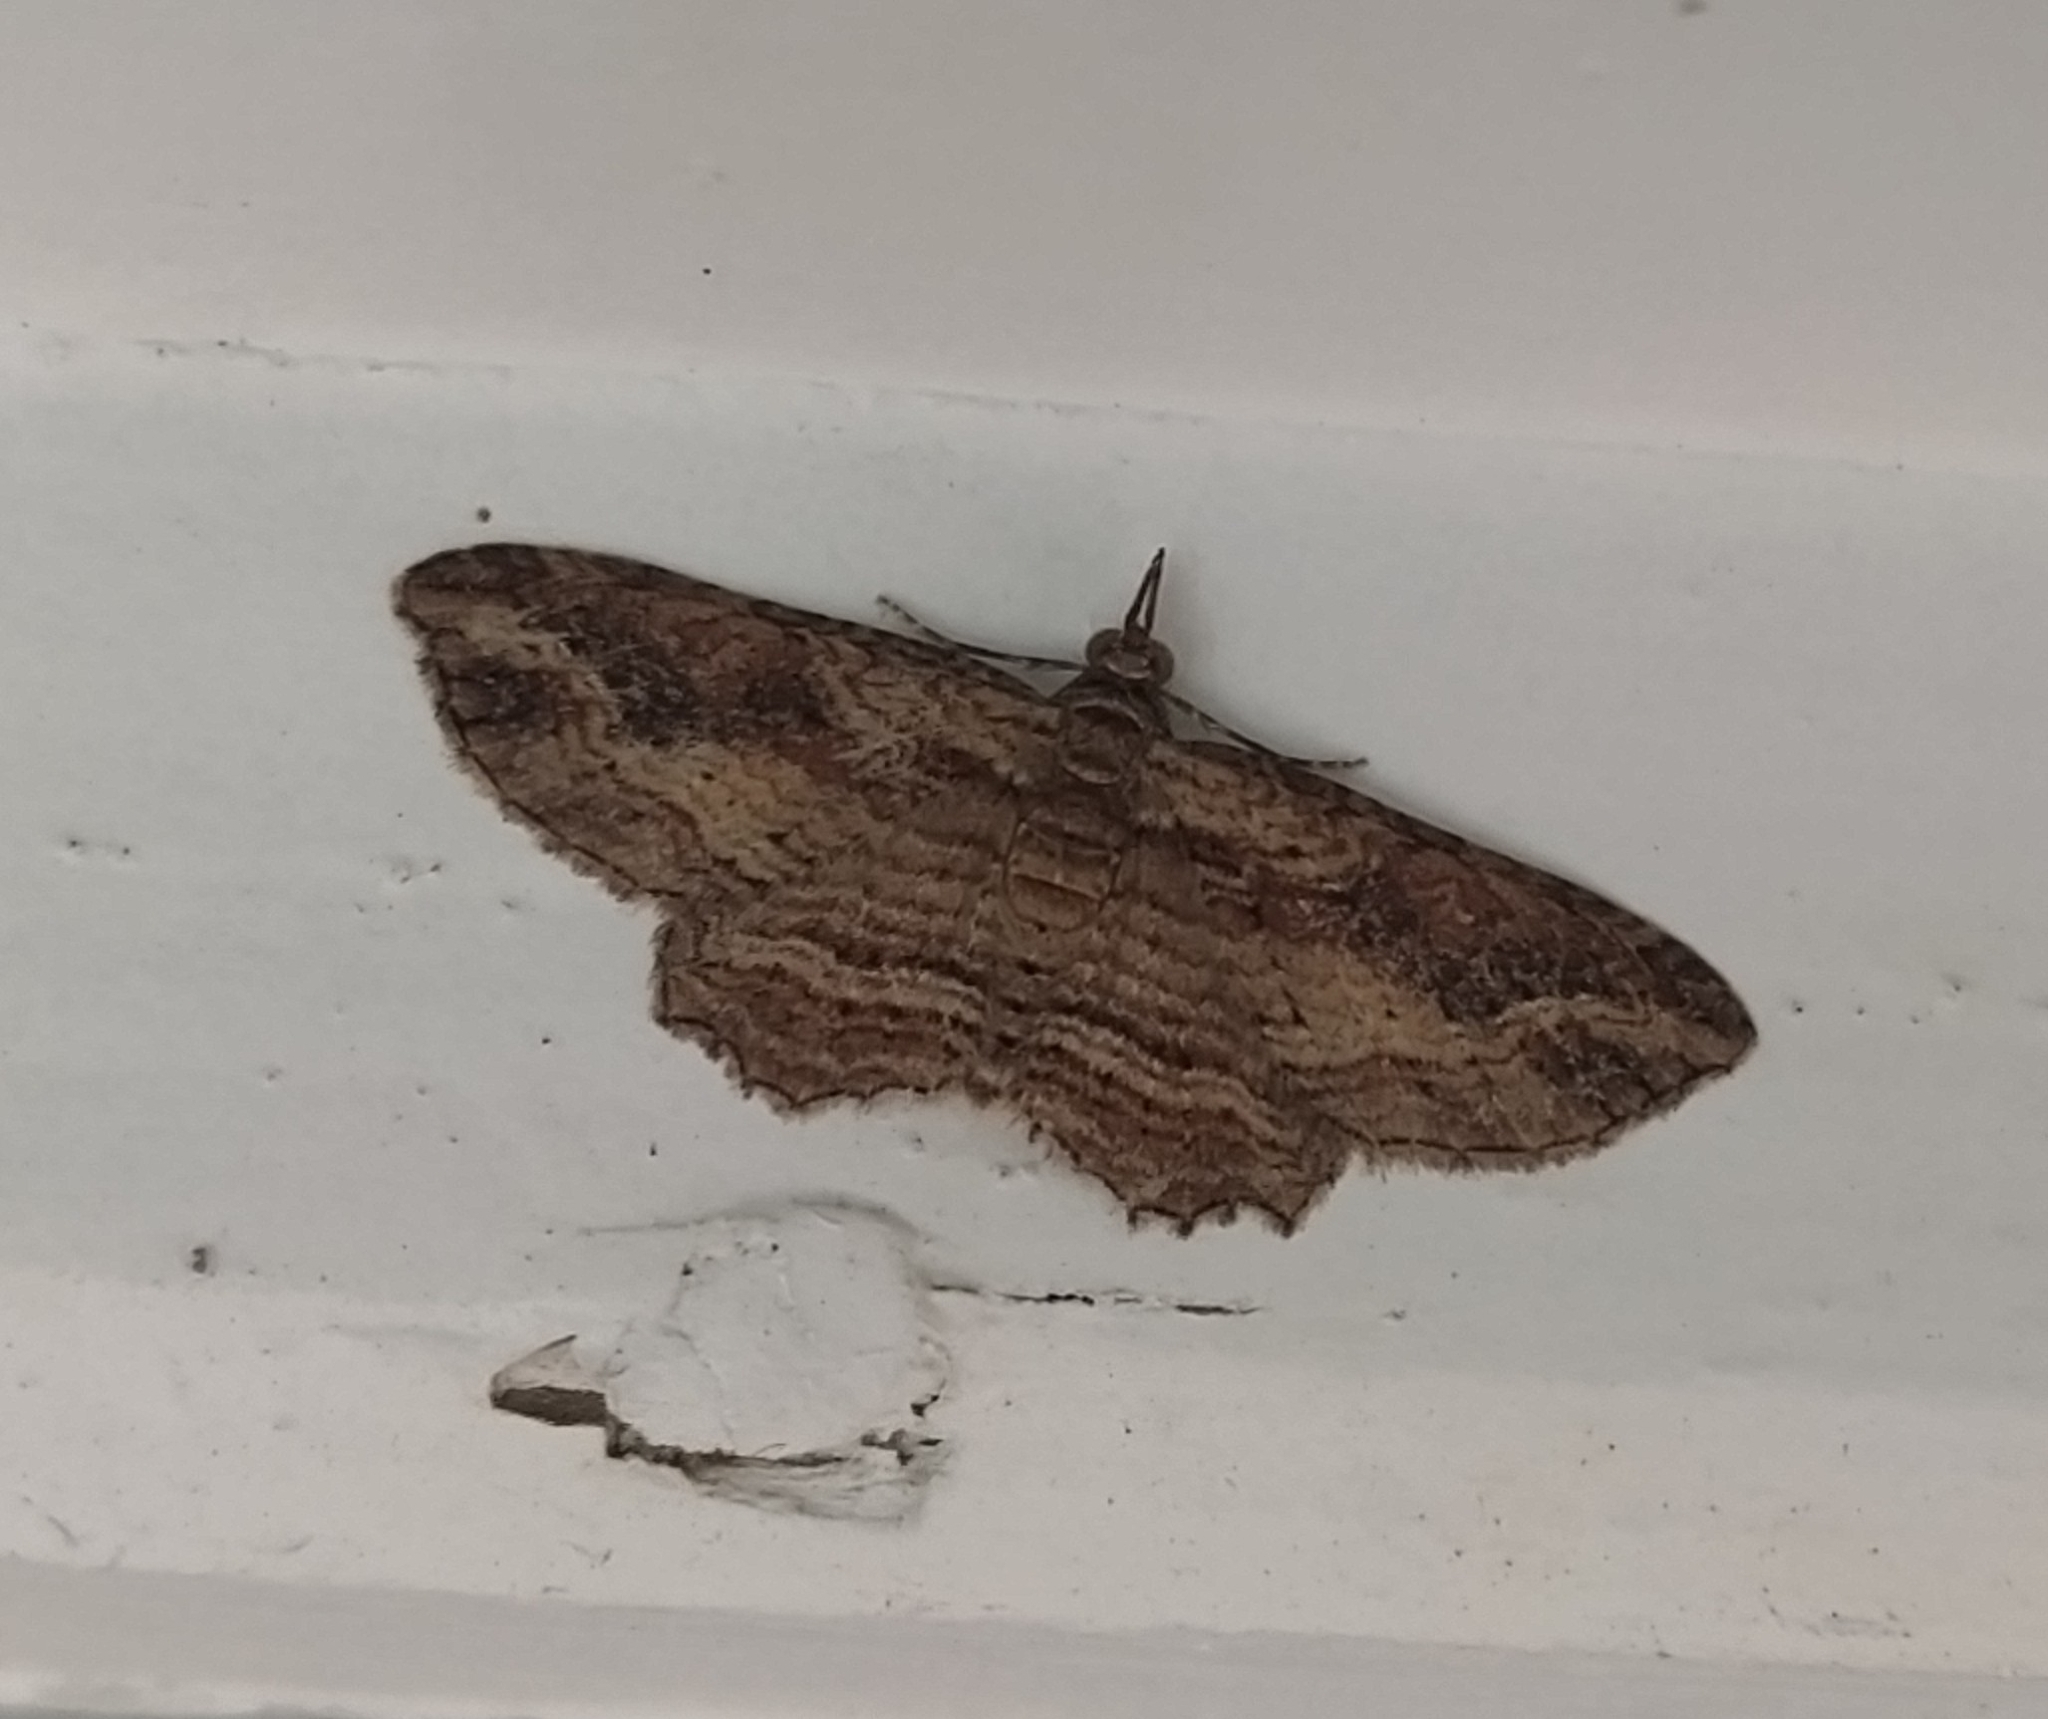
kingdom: Animalia
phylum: Arthropoda
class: Insecta
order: Lepidoptera
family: Geometridae
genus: Chloroclystis
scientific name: Chloroclystis filata
